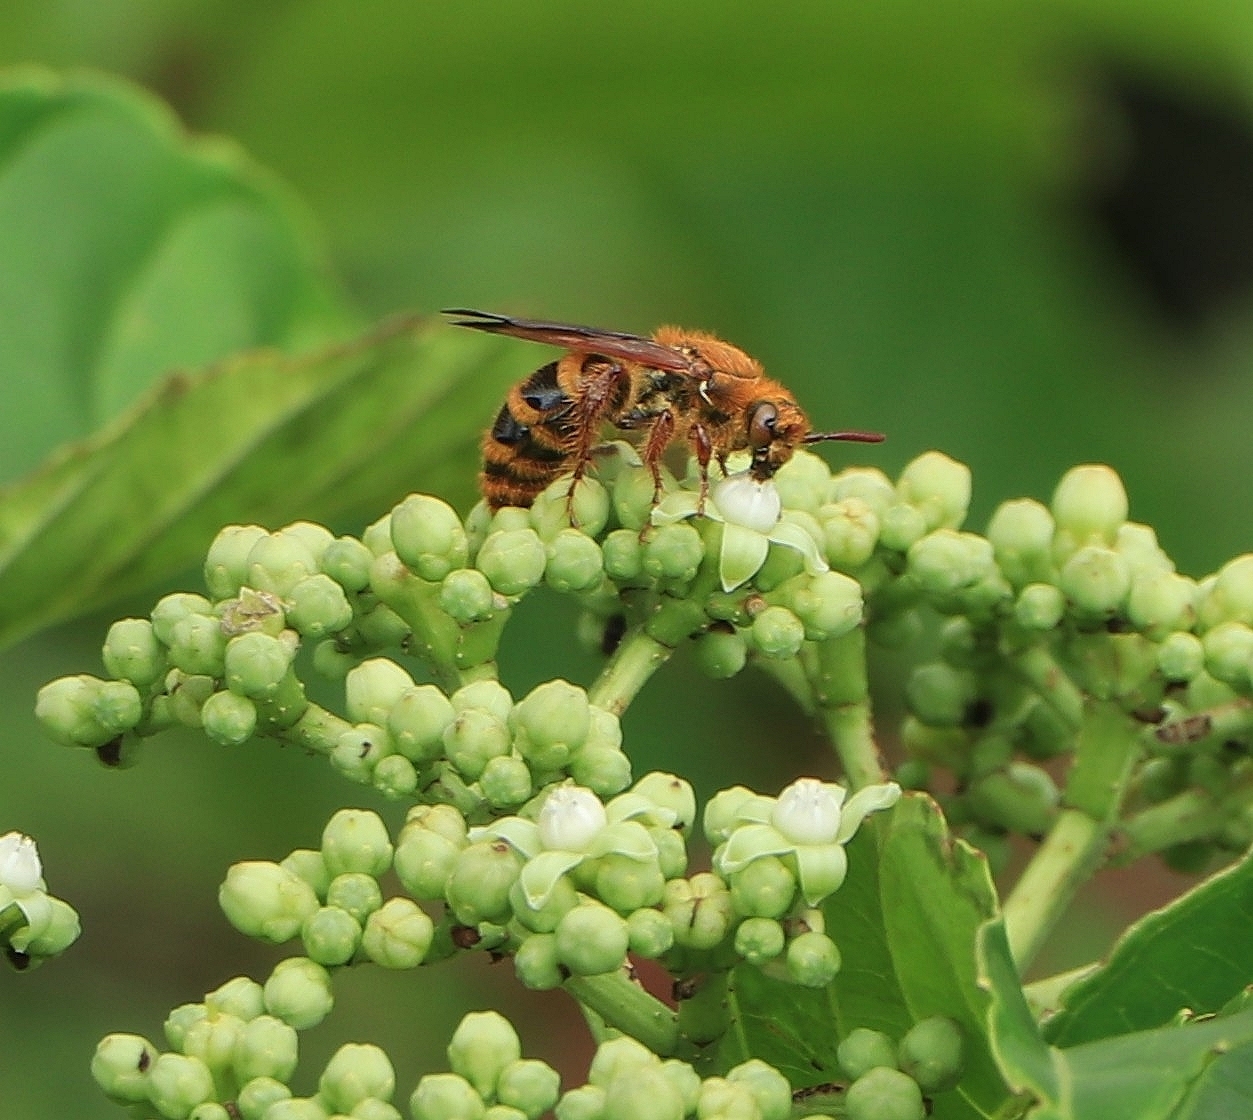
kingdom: Animalia
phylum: Arthropoda
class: Insecta
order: Hymenoptera
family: Scoliidae
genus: Campsomeris
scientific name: Campsomeris phalerata
